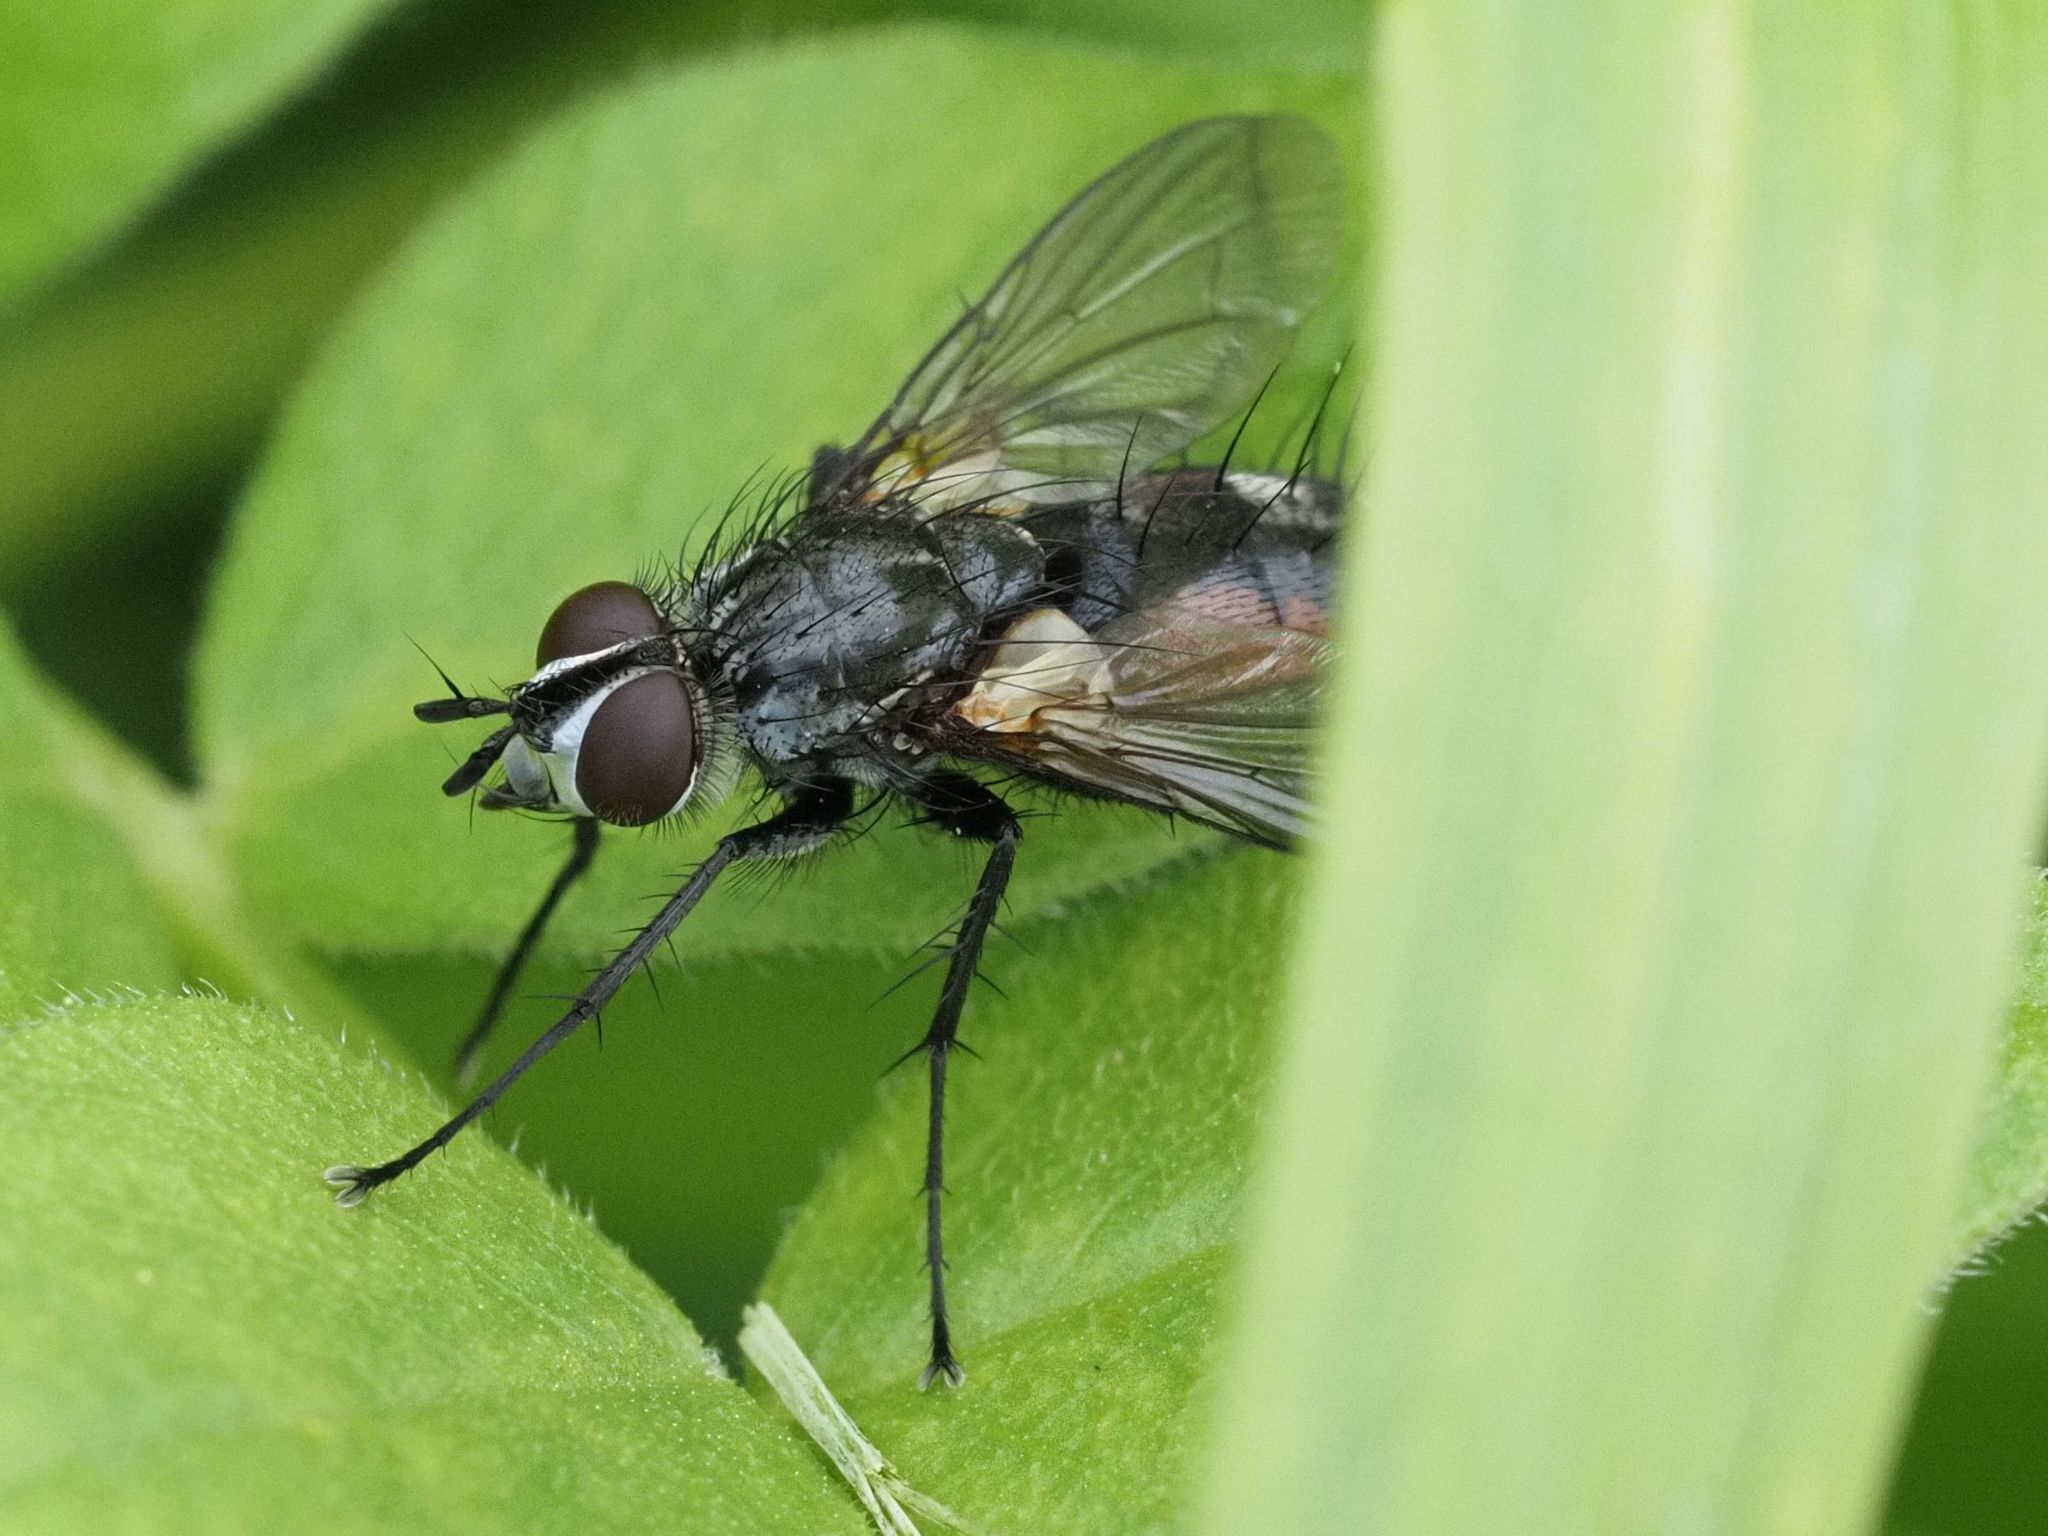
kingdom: Animalia
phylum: Arthropoda
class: Insecta
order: Diptera
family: Tachinidae
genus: Eriothrix
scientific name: Eriothrix rufomaculatus
